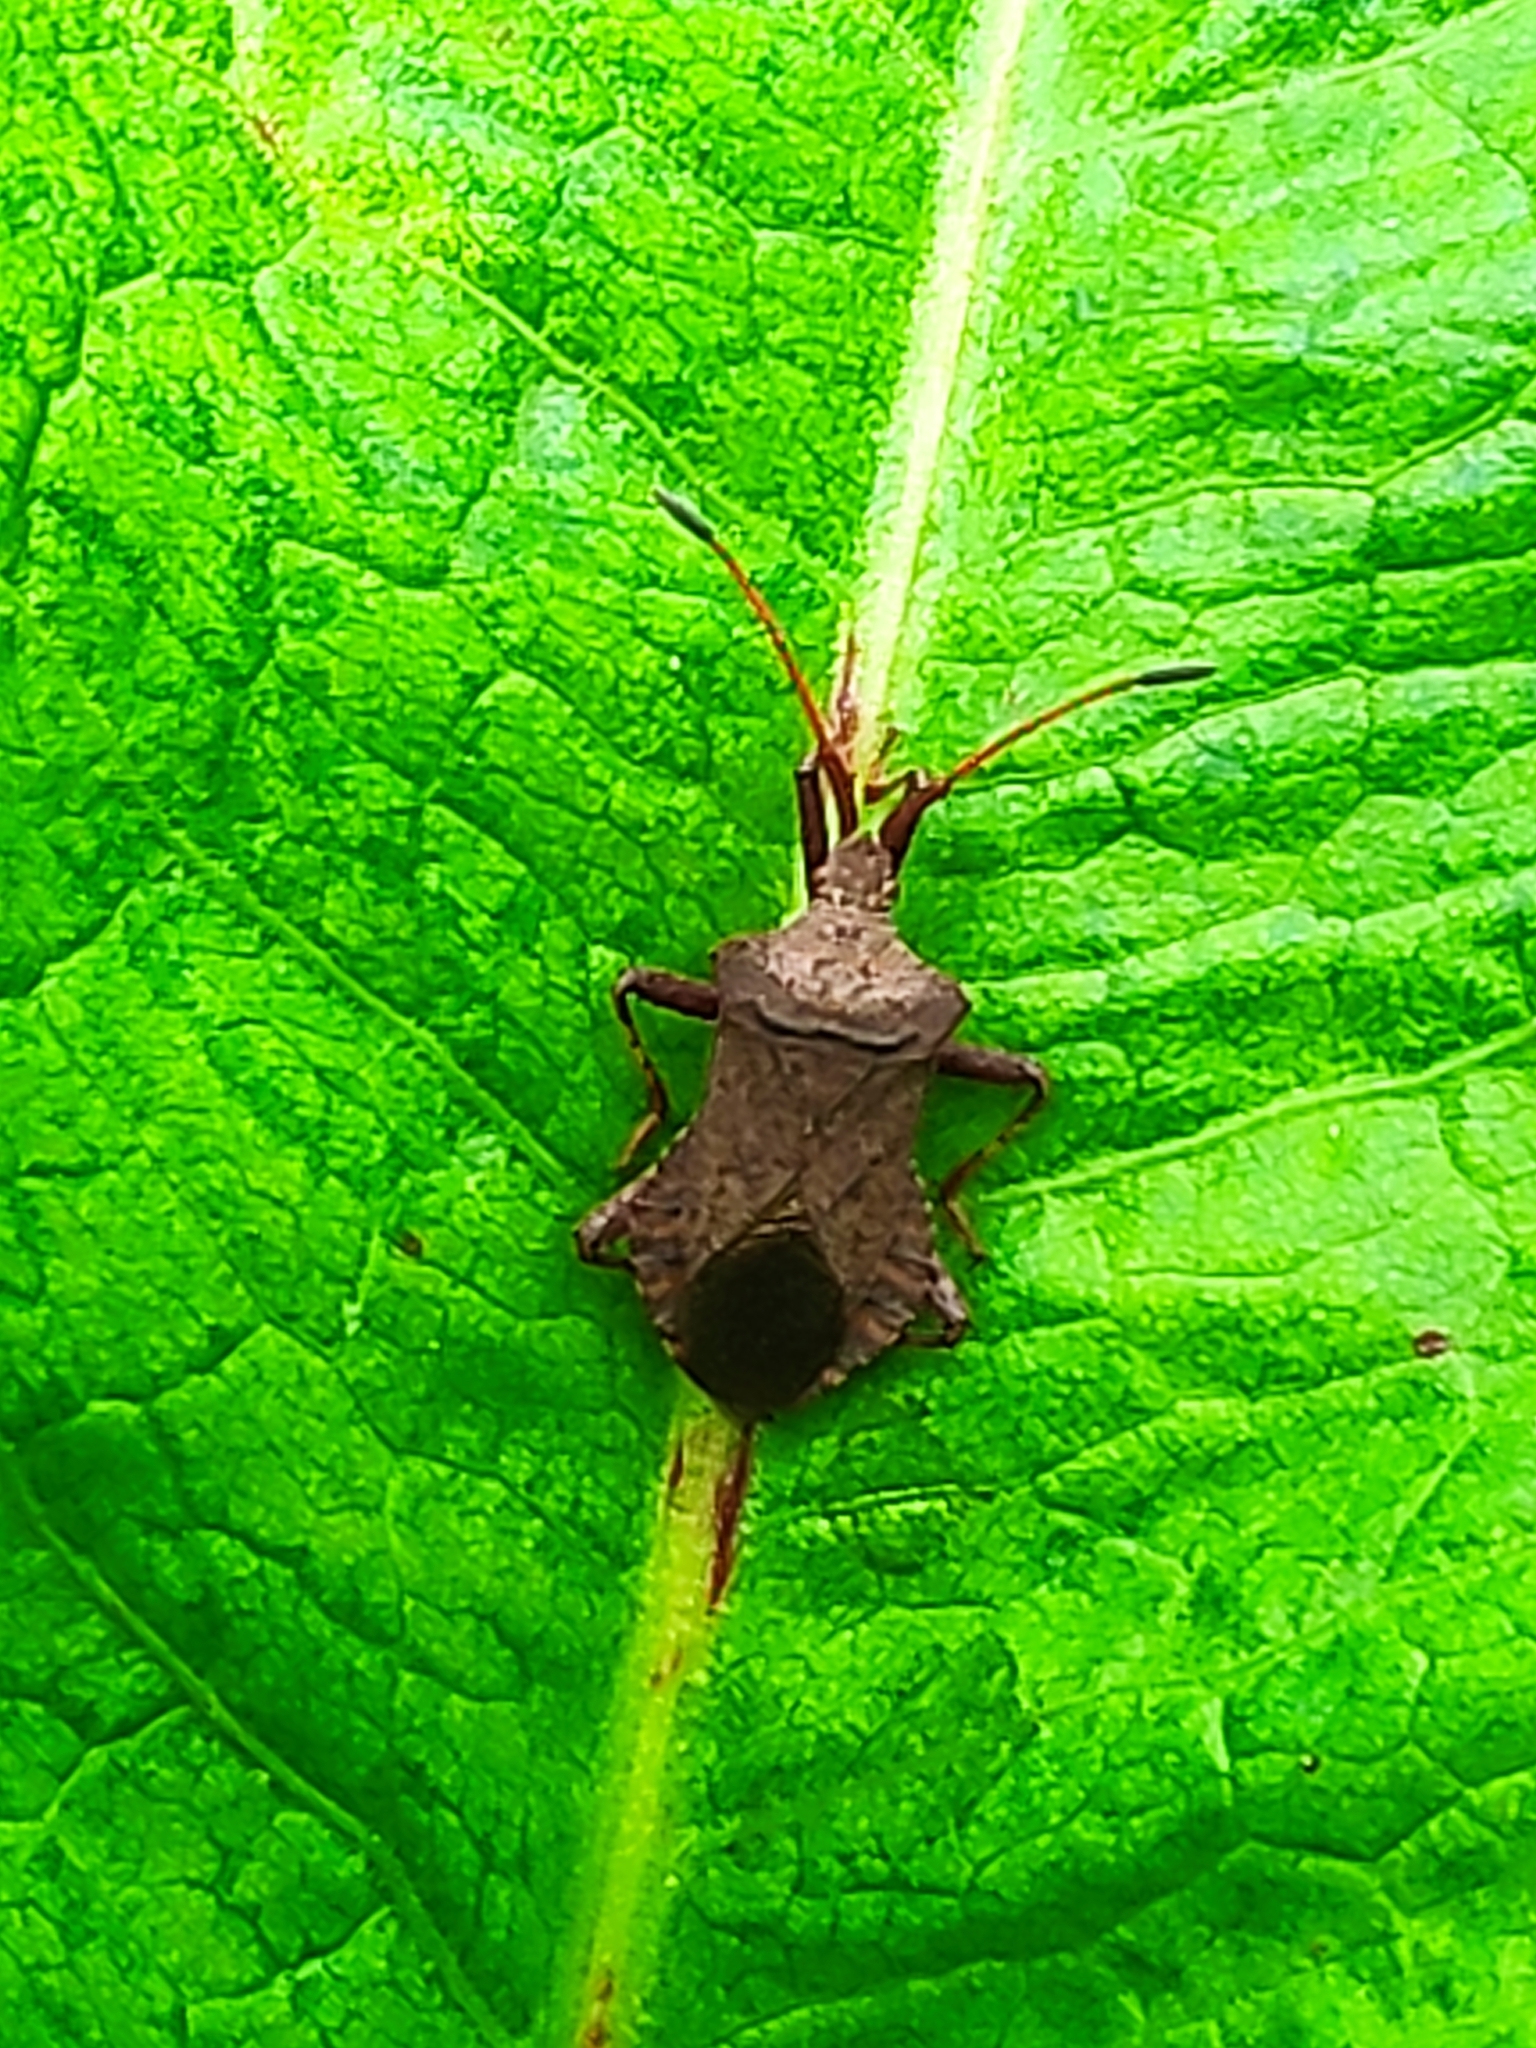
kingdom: Animalia
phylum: Arthropoda
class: Insecta
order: Hemiptera
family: Coreidae
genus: Coreus
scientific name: Coreus marginatus
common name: Dock bug
